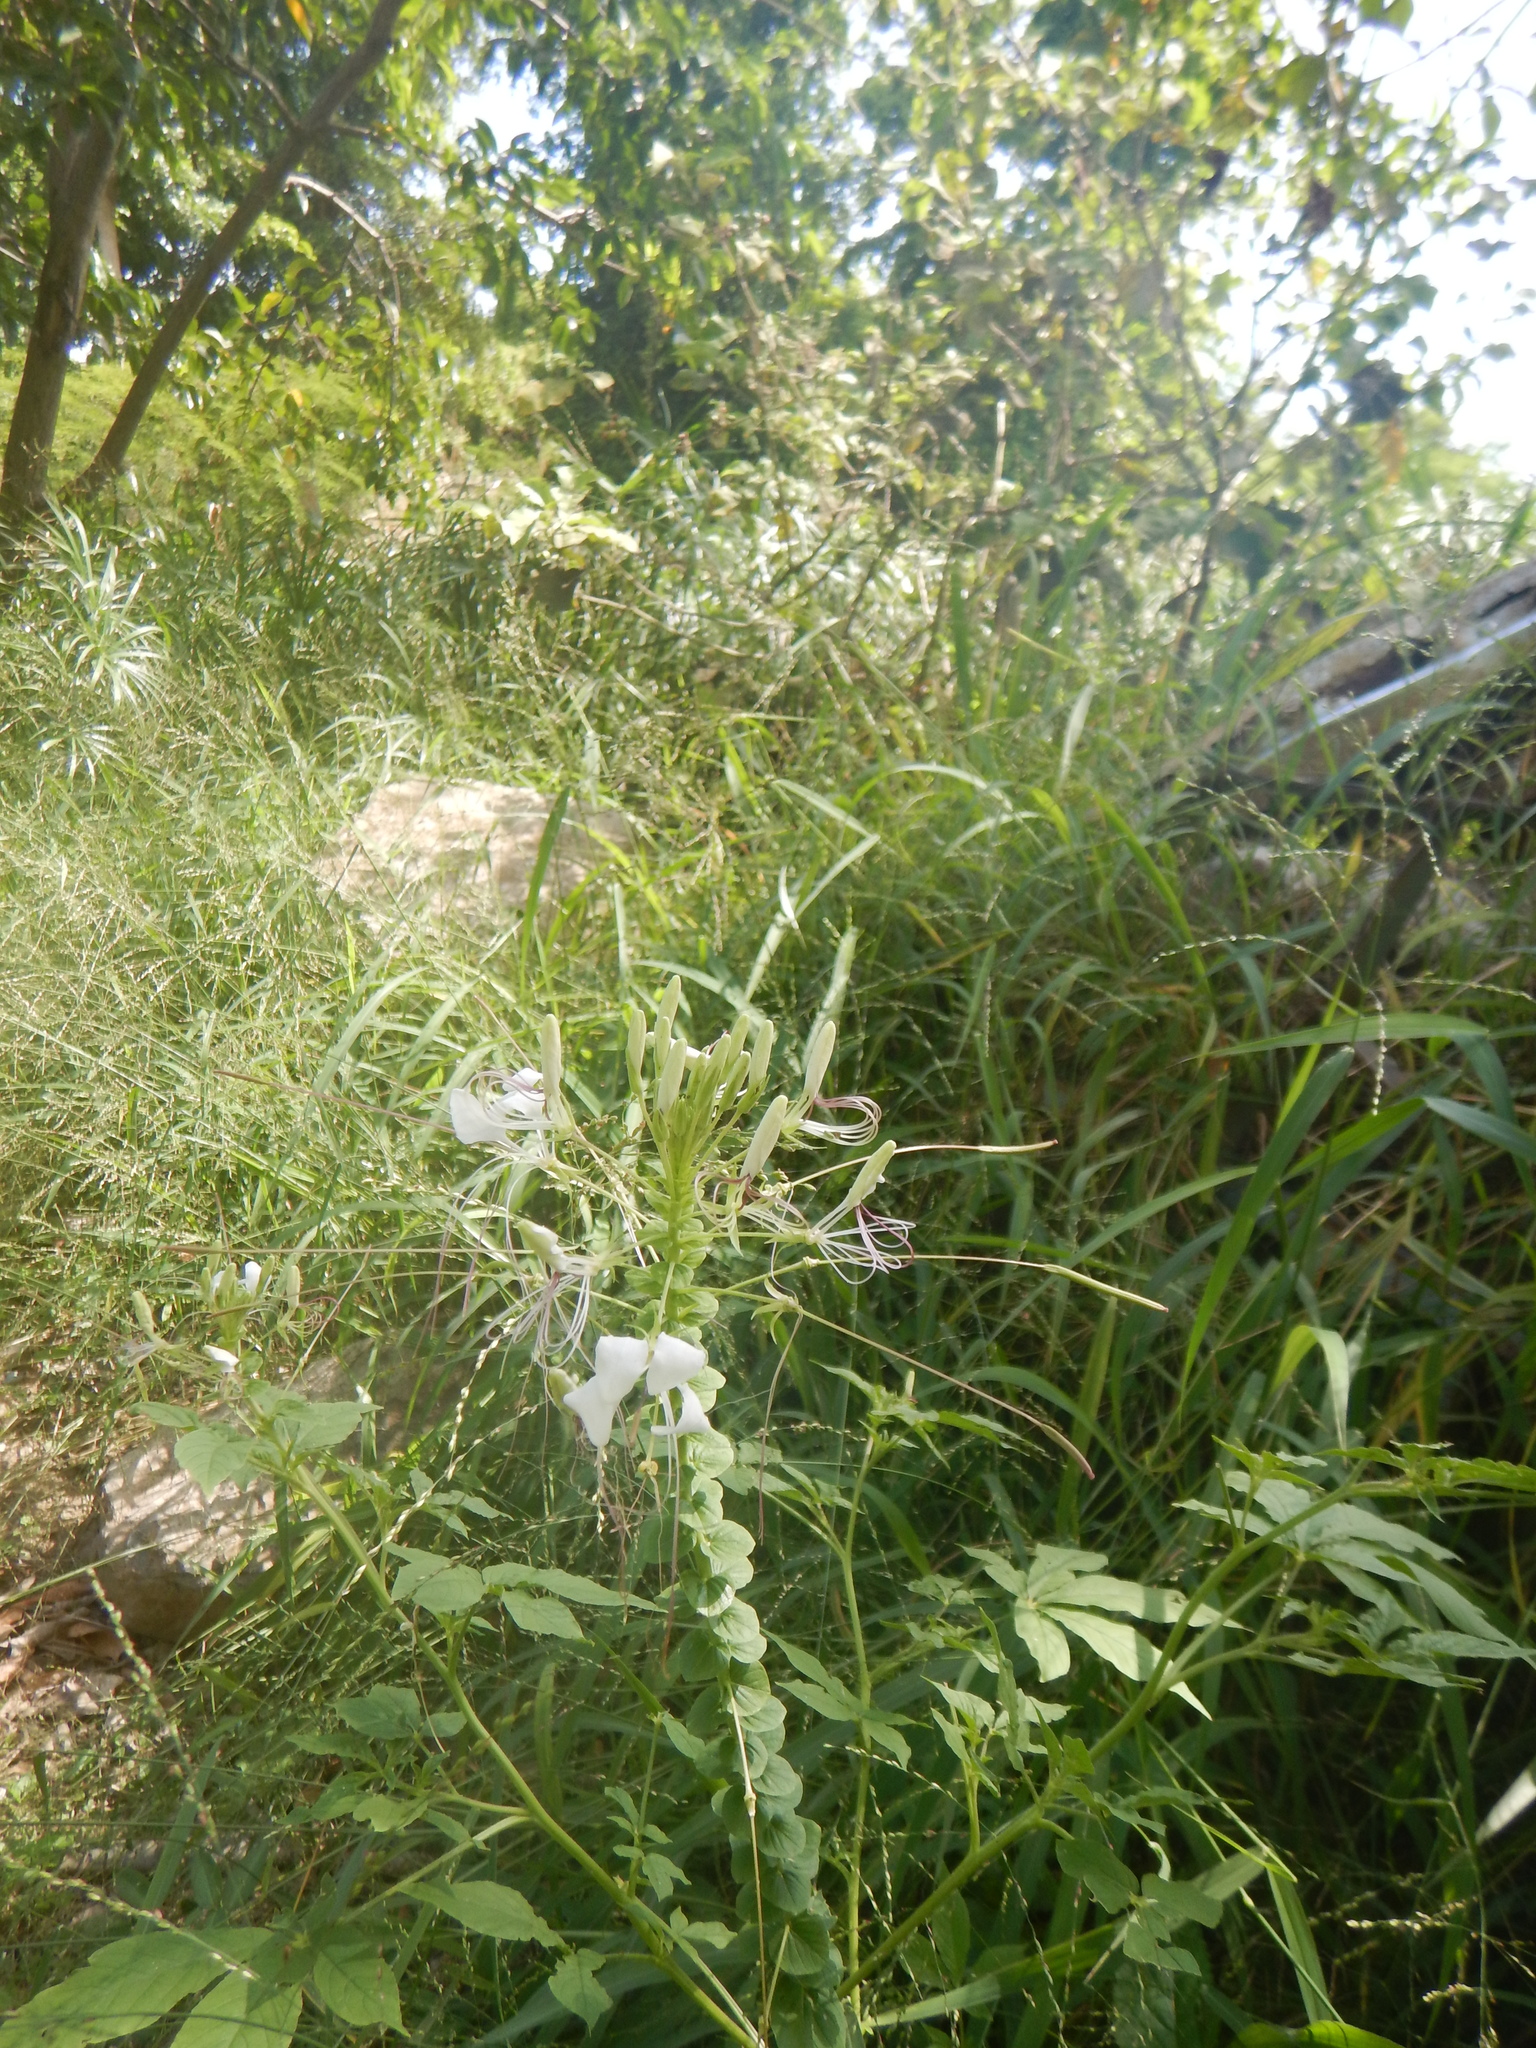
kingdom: Plantae
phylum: Tracheophyta
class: Magnoliopsida
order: Brassicales
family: Cleomaceae
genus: Gynandropsis
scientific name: Gynandropsis gynandra
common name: Spiderwisp
